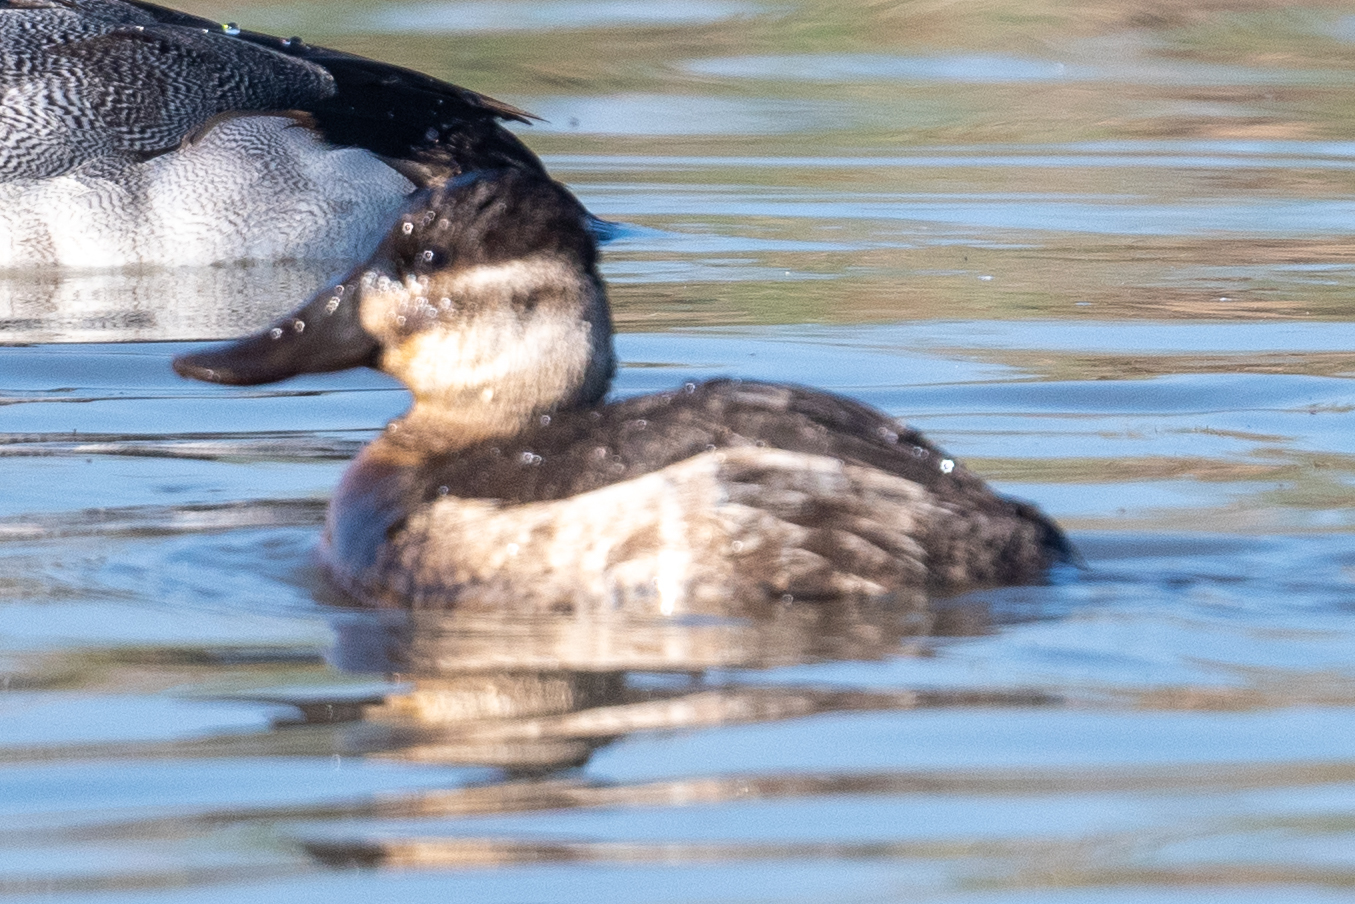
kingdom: Animalia
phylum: Chordata
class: Aves
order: Anseriformes
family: Anatidae
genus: Oxyura
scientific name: Oxyura jamaicensis
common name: Ruddy duck
